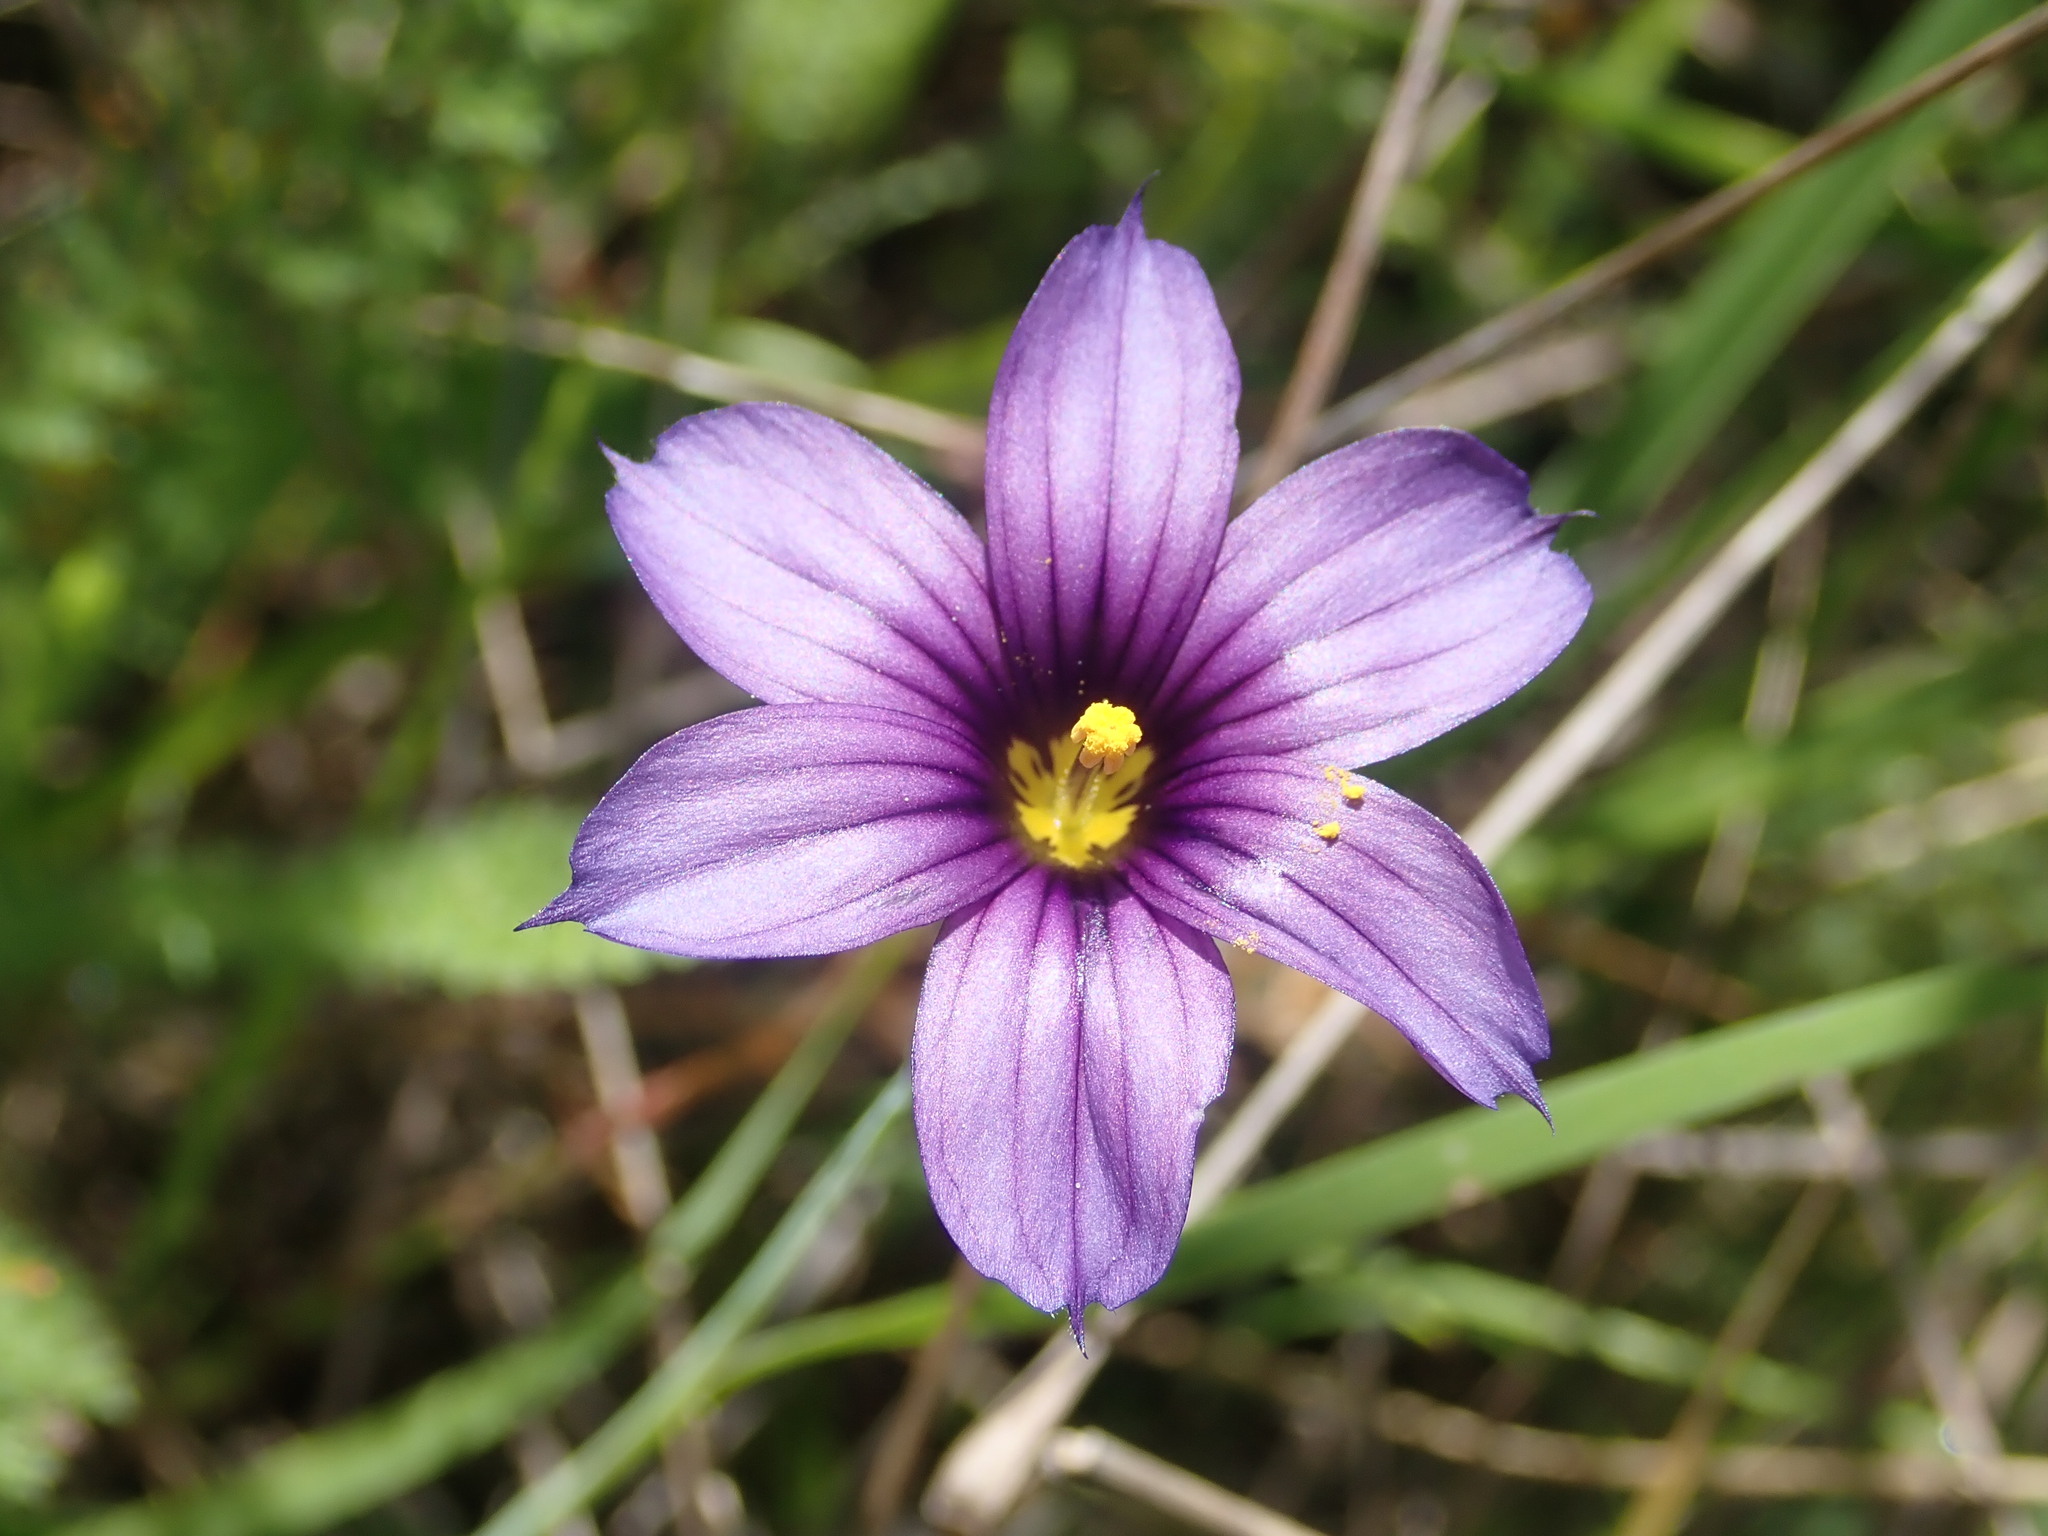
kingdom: Plantae
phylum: Tracheophyta
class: Liliopsida
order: Asparagales
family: Iridaceae
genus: Sisyrinchium
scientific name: Sisyrinchium bellum
